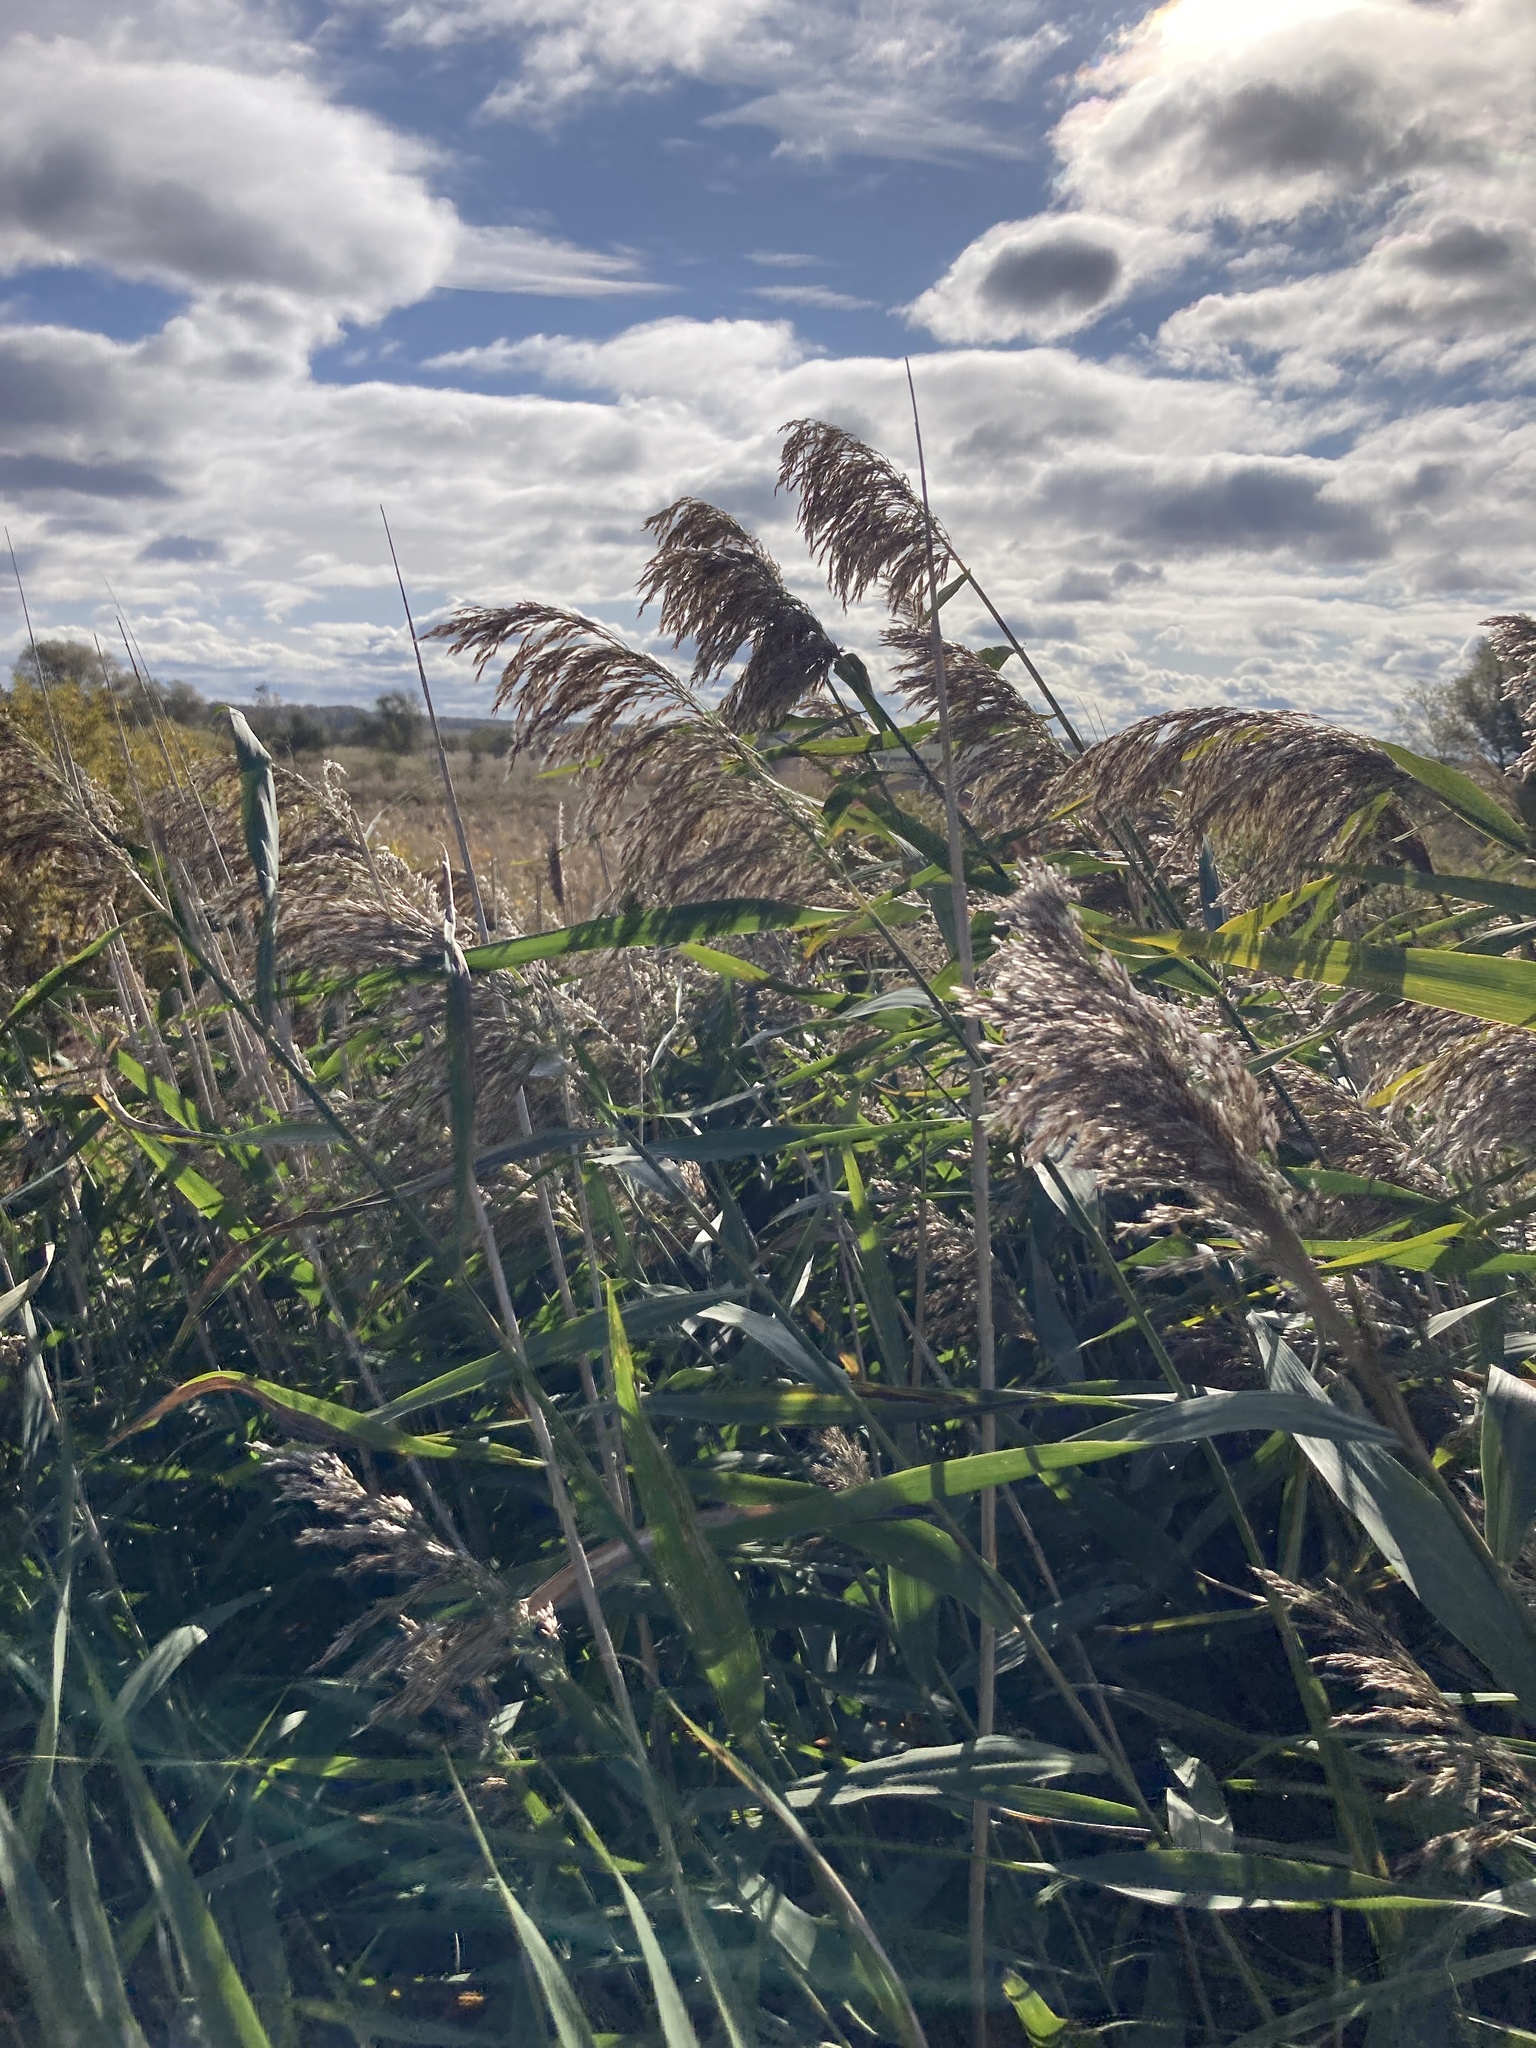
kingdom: Plantae
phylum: Tracheophyta
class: Liliopsida
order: Poales
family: Poaceae
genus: Phragmites
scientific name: Phragmites australis
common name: Common reed
